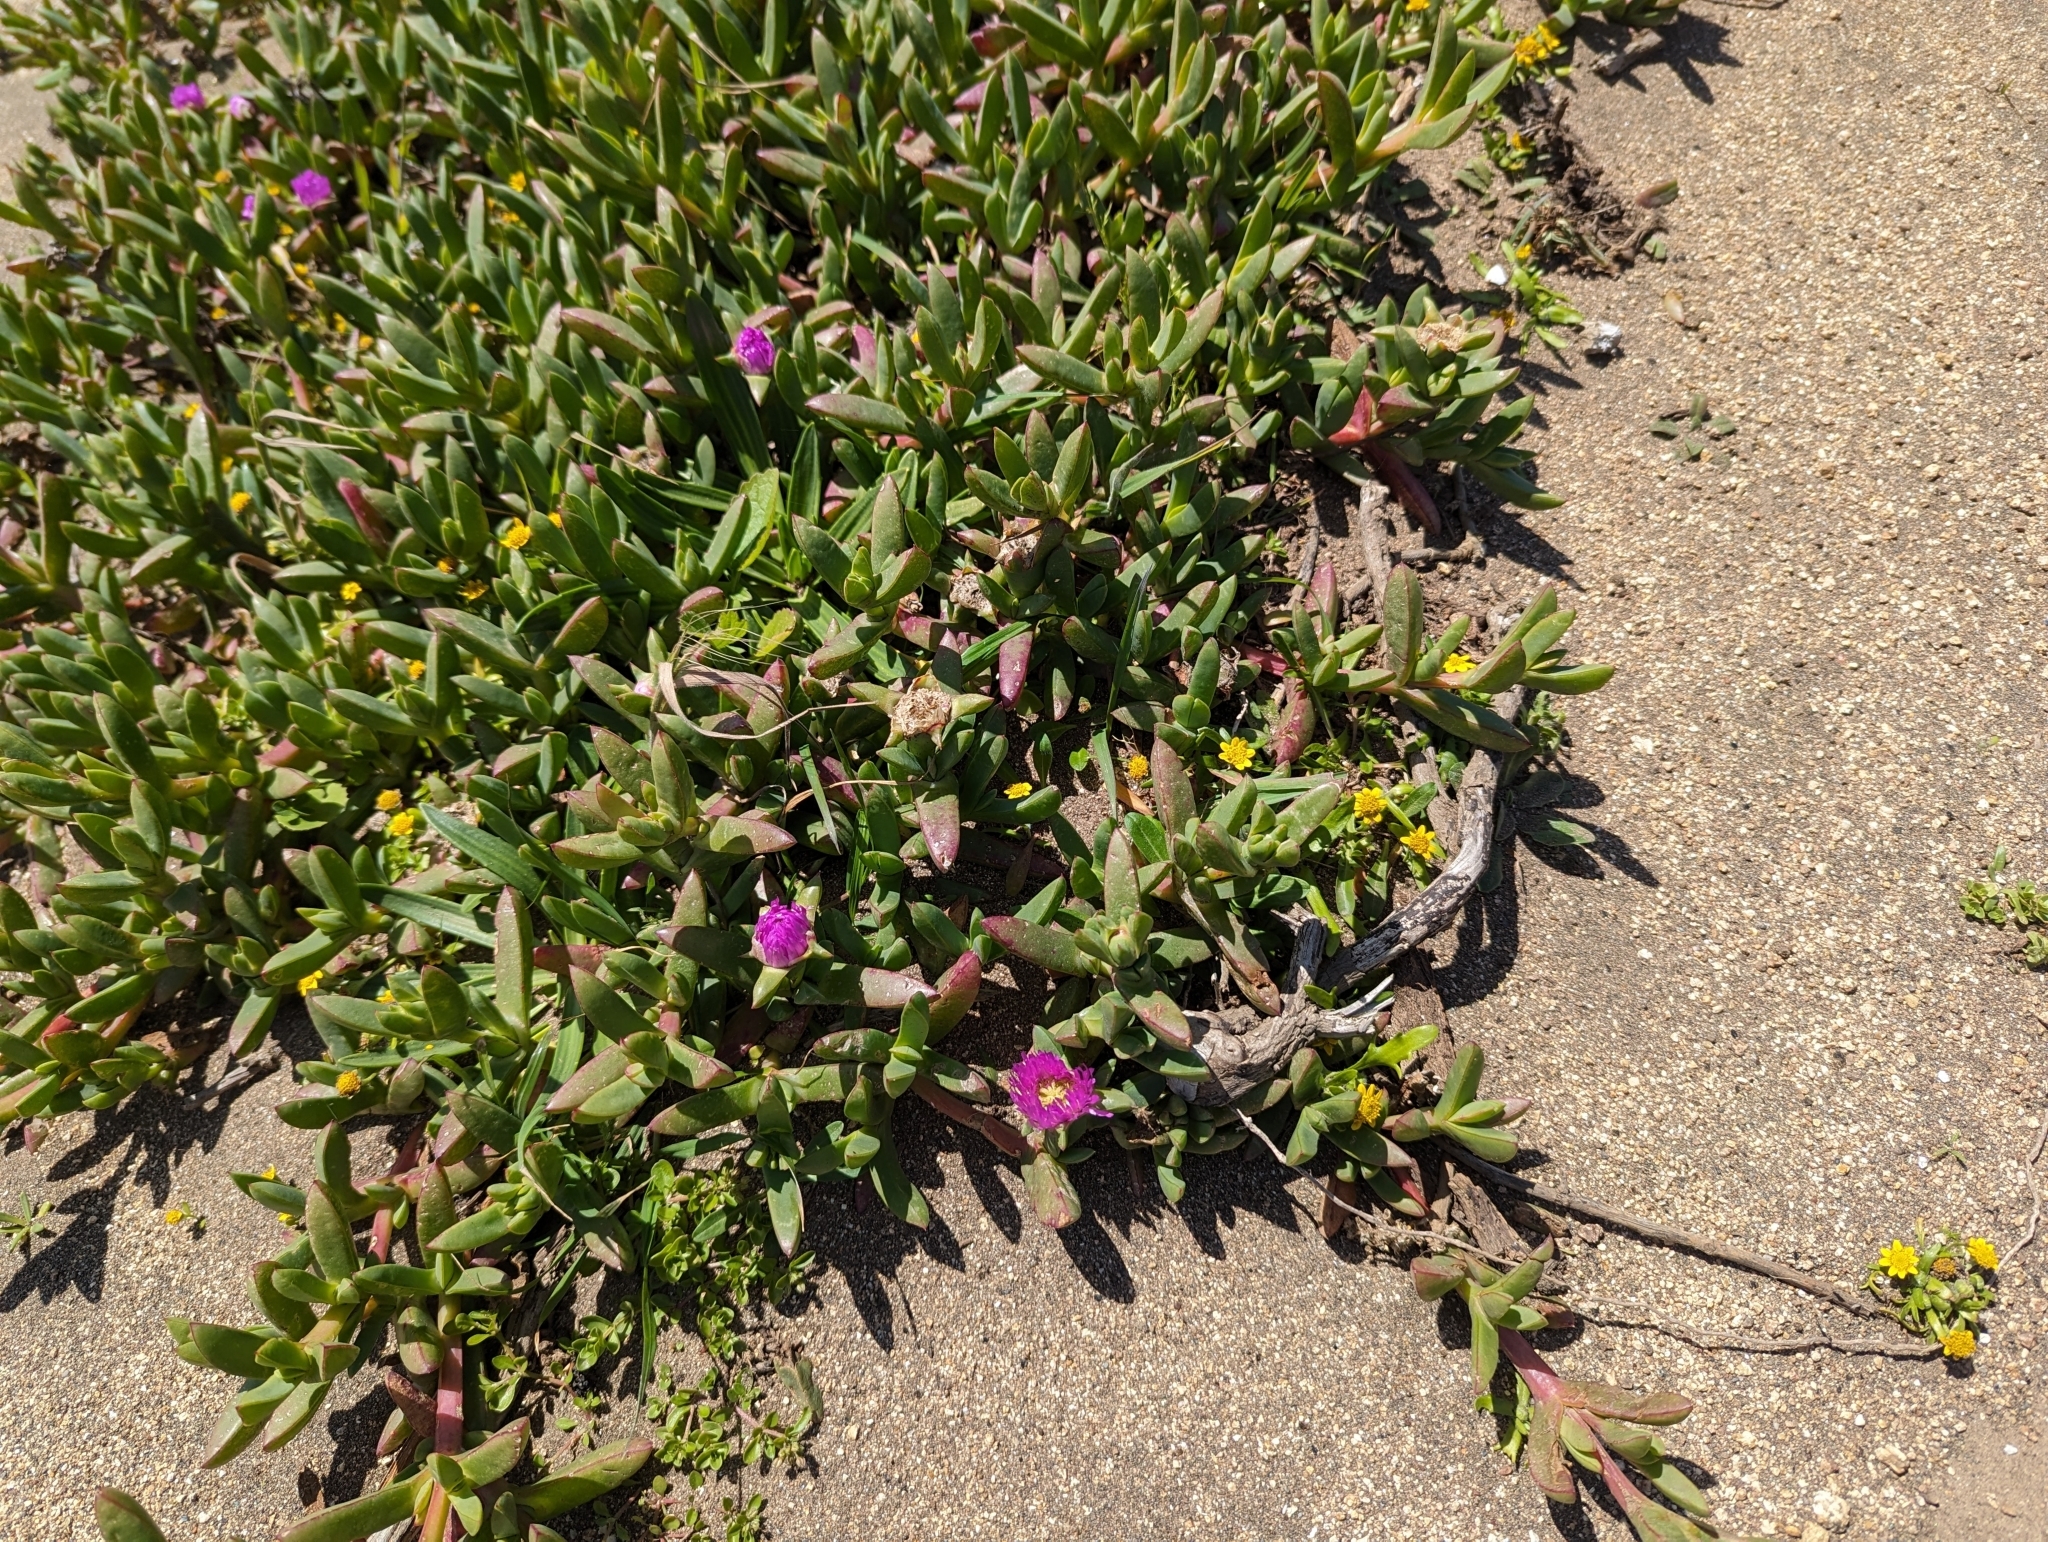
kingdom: Plantae
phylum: Tracheophyta
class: Magnoliopsida
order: Caryophyllales
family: Aizoaceae
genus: Carpobrotus
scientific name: Carpobrotus chilensis
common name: Sea fig
